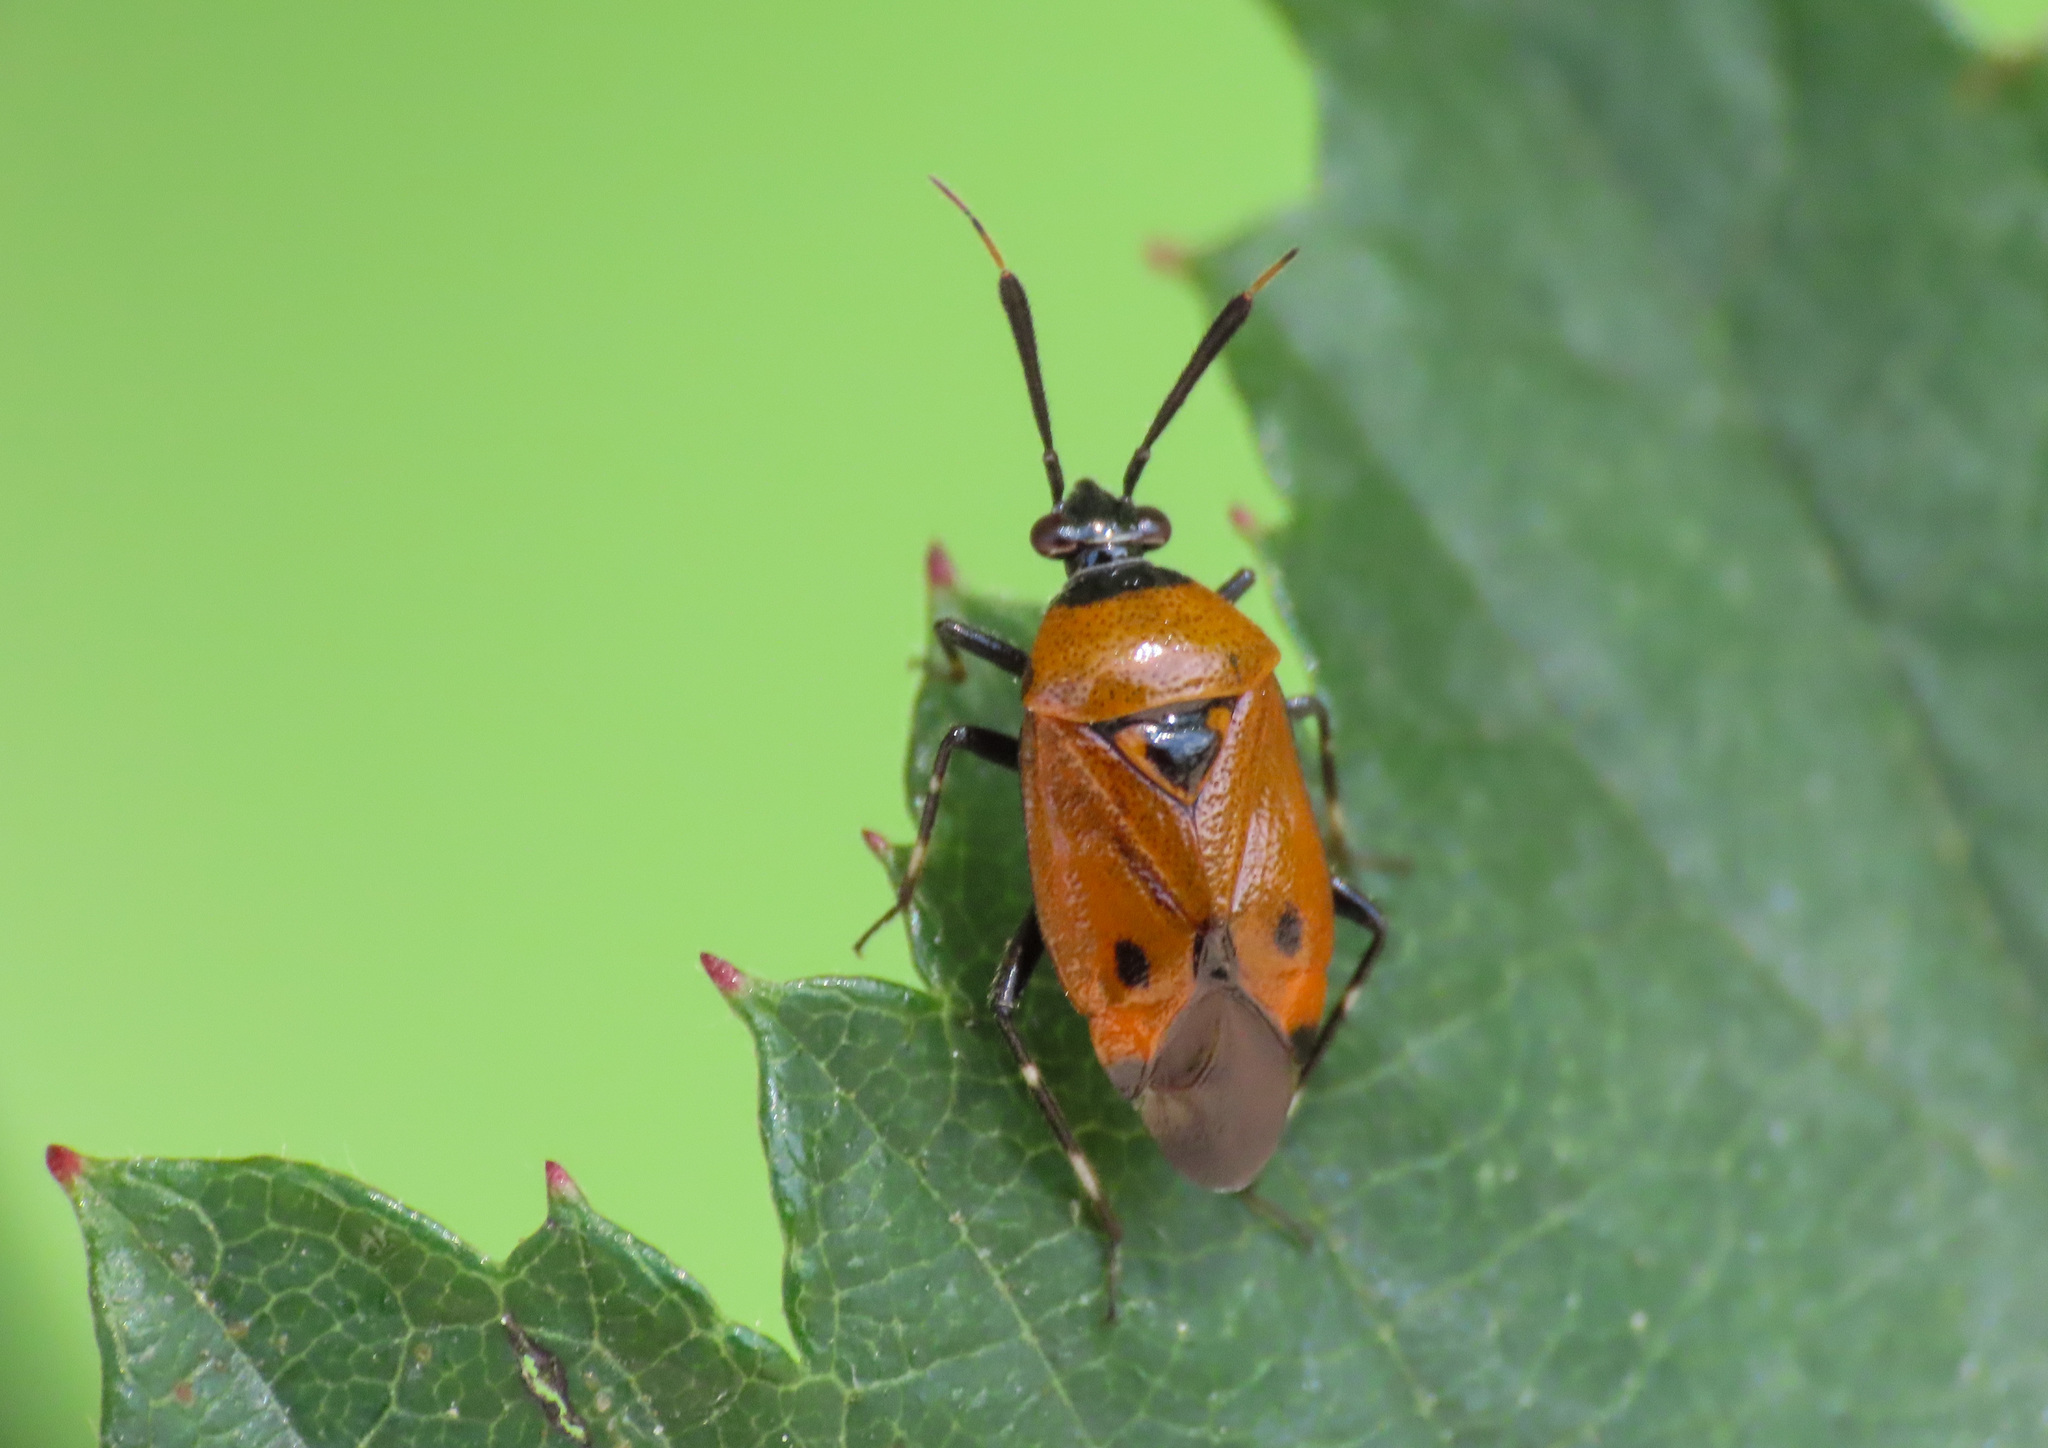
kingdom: Animalia
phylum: Arthropoda
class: Insecta
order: Hemiptera
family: Miridae
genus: Deraeocoris
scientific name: Deraeocoris punctum
